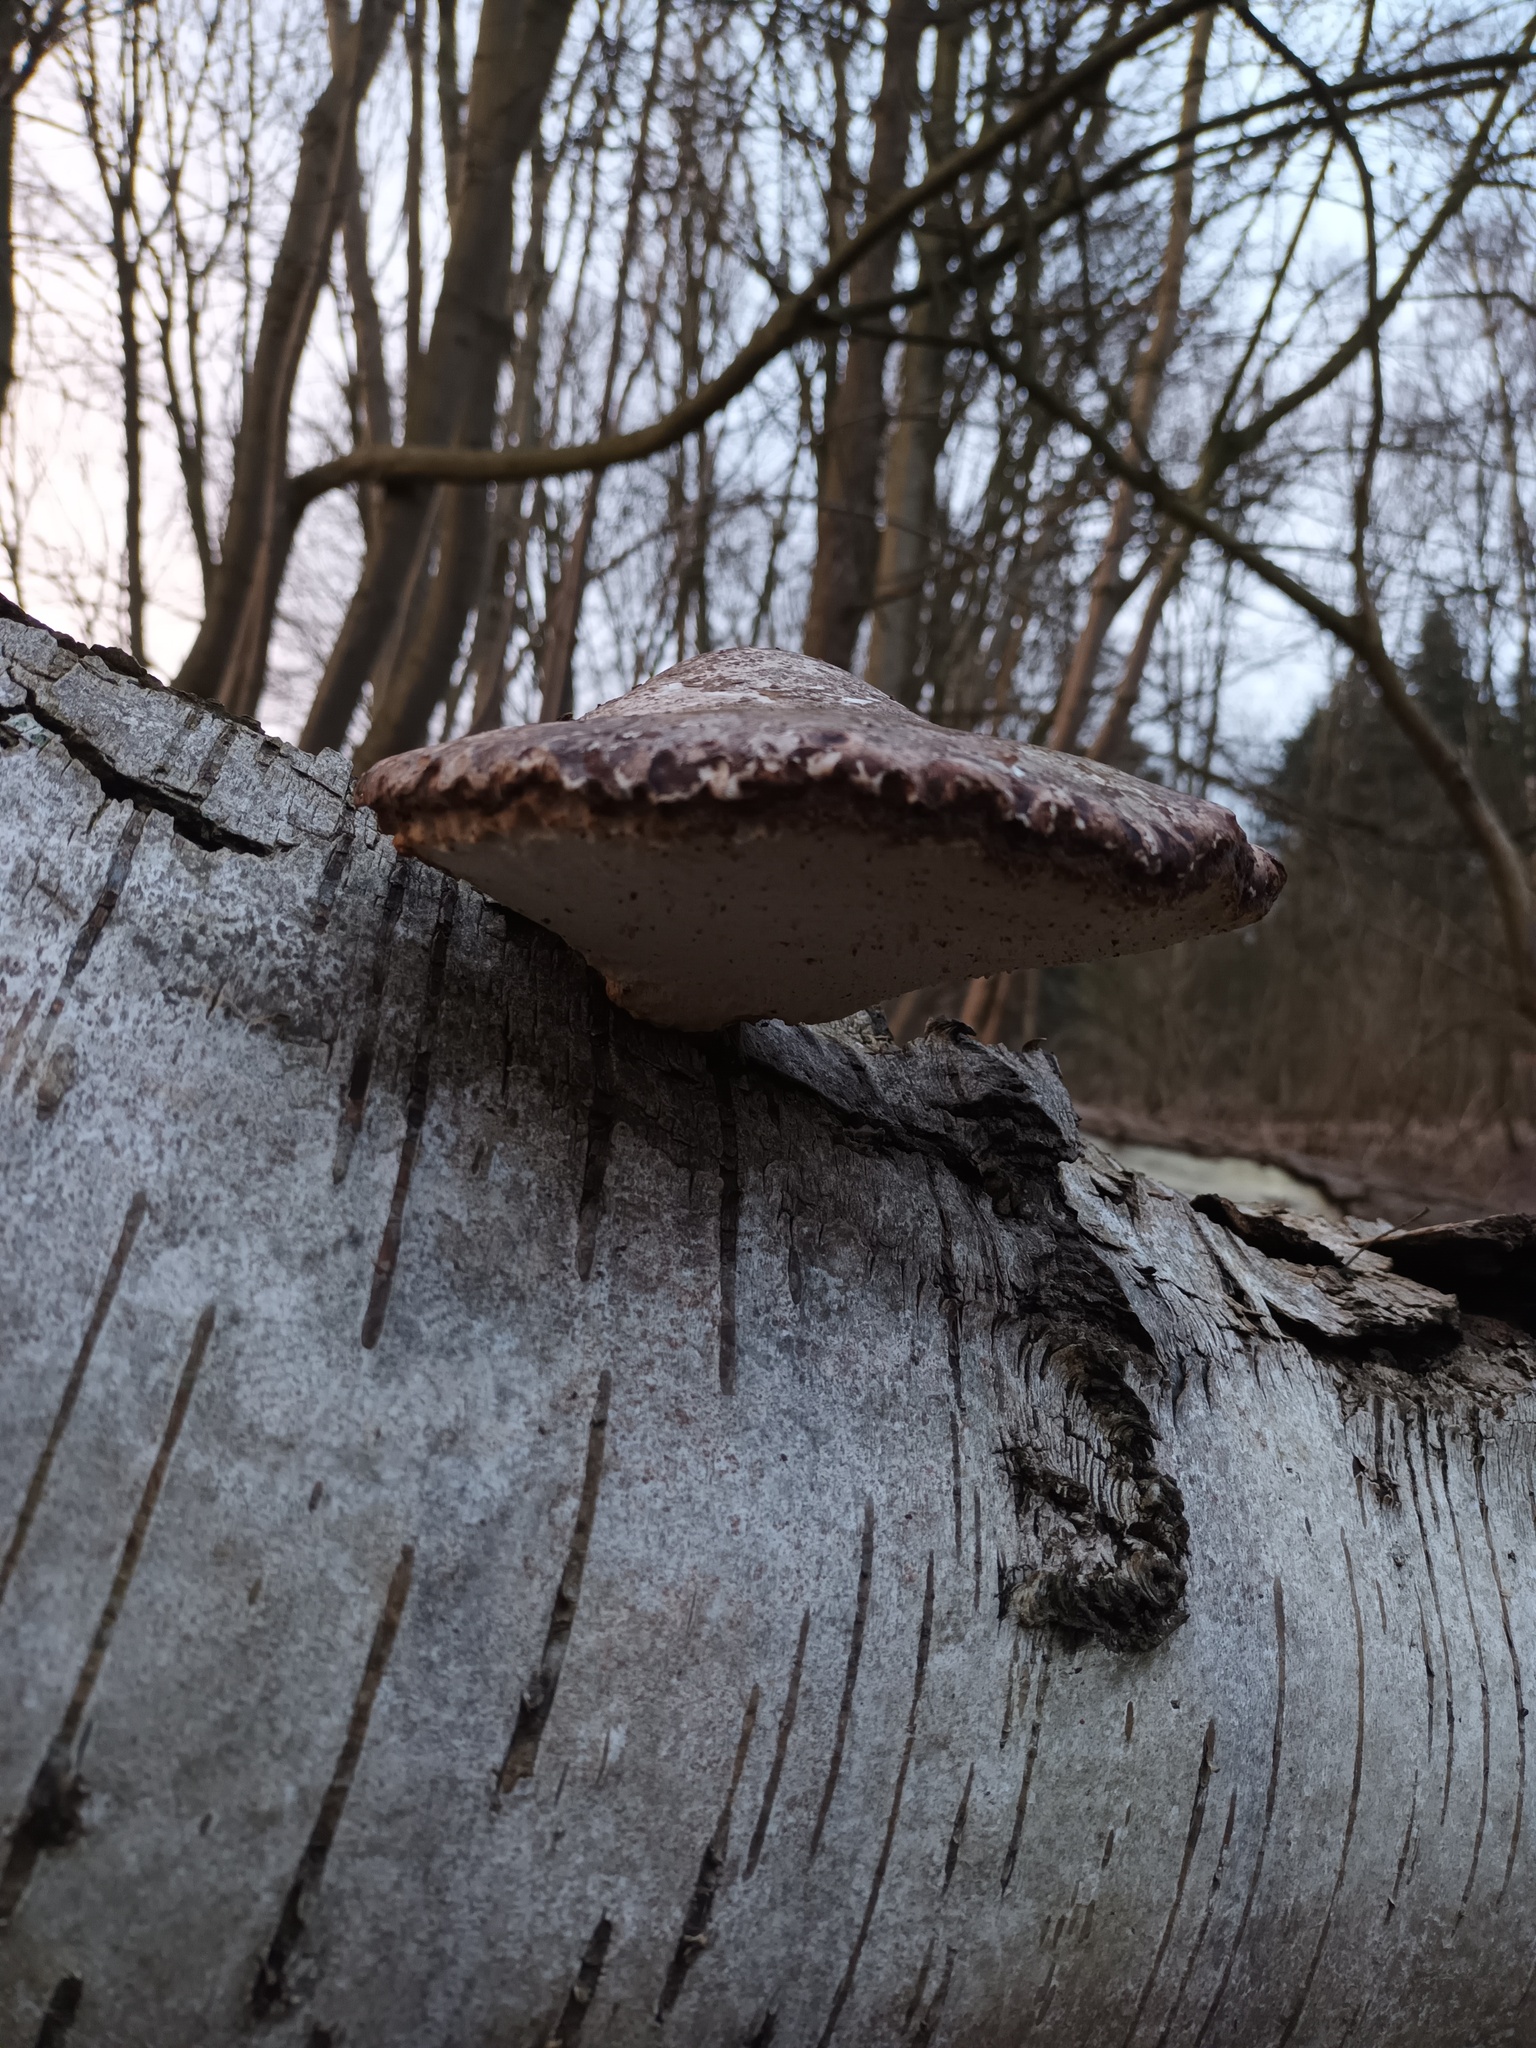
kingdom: Fungi
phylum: Basidiomycota
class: Agaricomycetes
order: Polyporales
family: Fomitopsidaceae
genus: Fomitopsis
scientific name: Fomitopsis betulina
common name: Birch polypore
